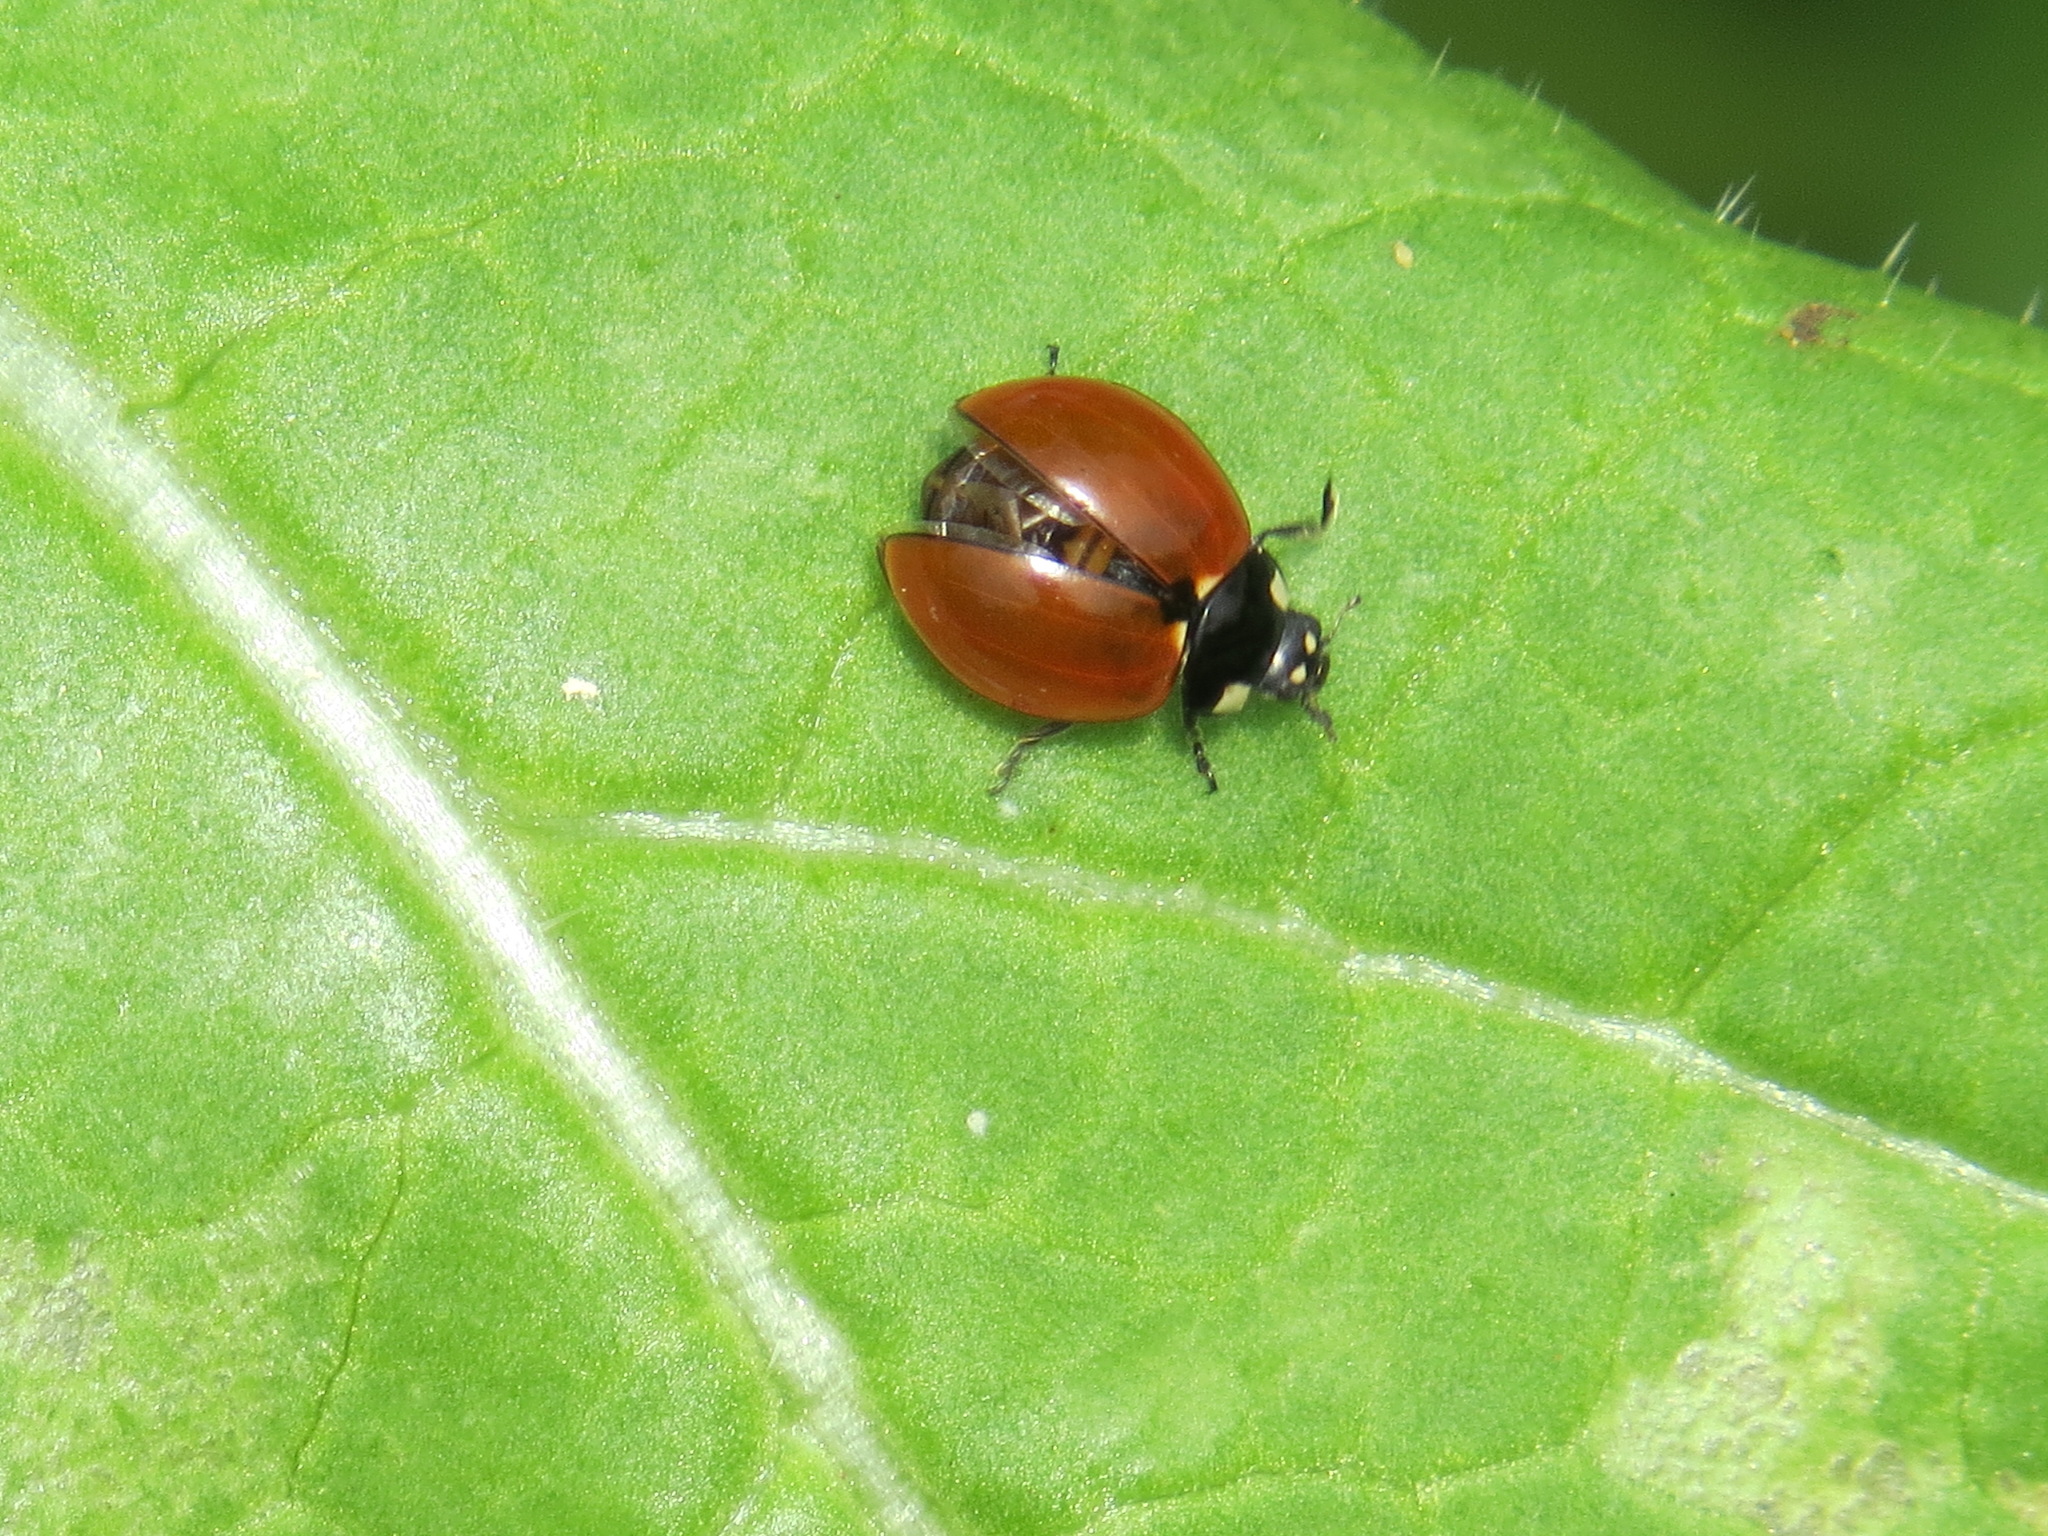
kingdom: Animalia
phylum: Arthropoda
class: Insecta
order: Coleoptera
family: Coccinellidae
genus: Coccinella
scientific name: Coccinella californica
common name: Lady beetle
